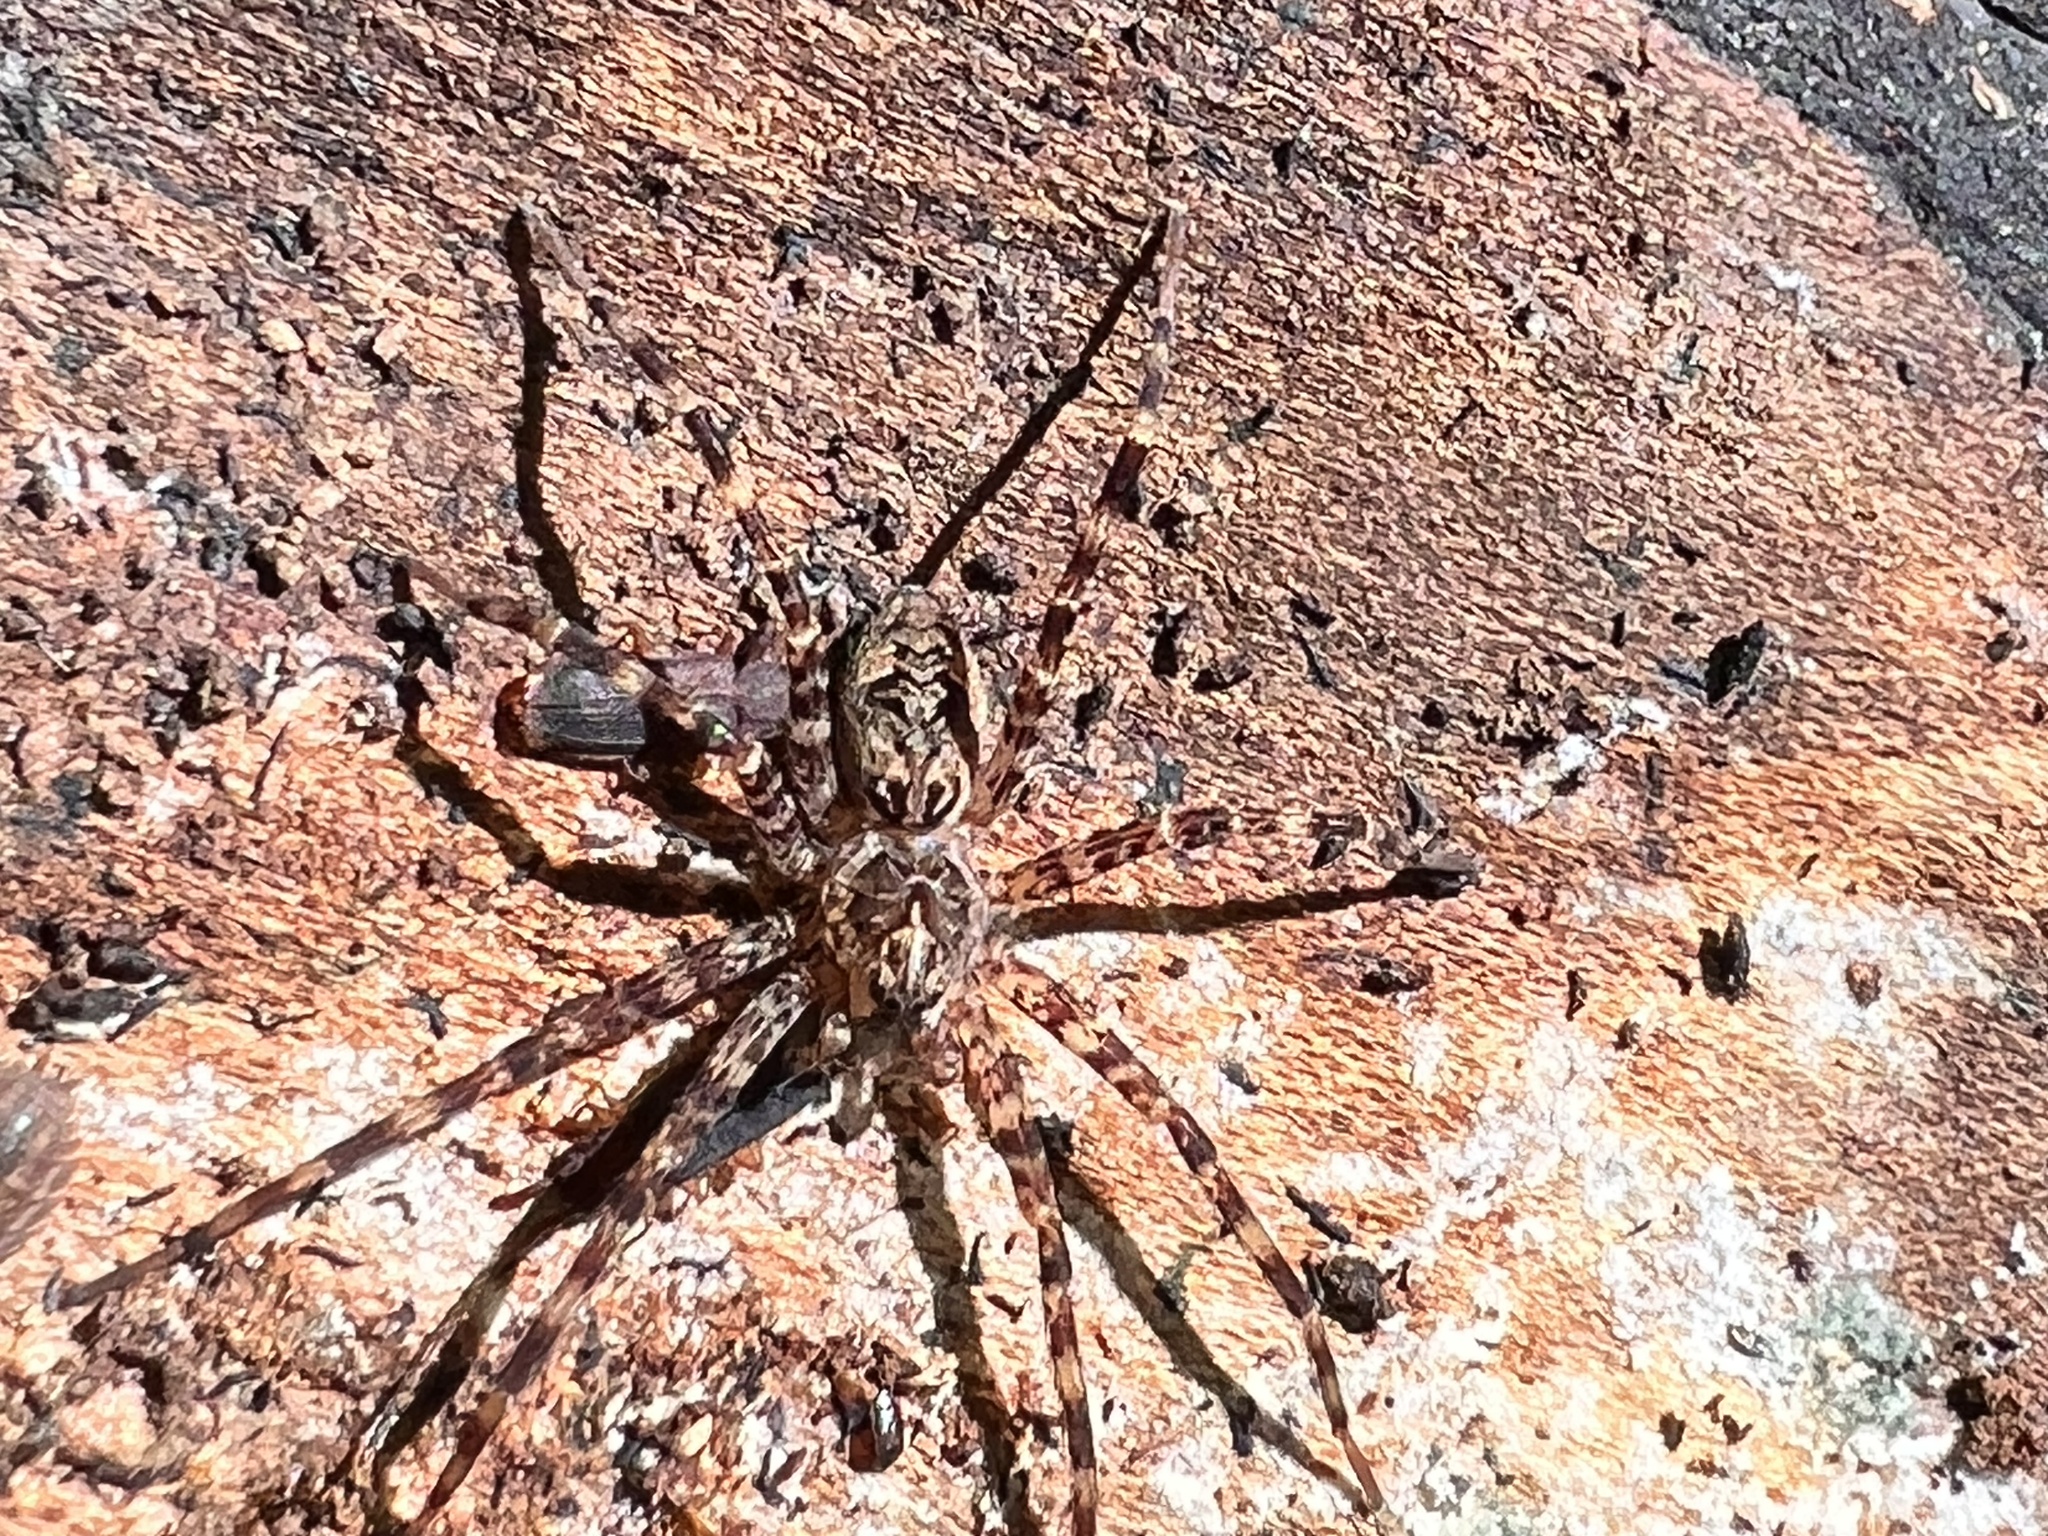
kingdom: Animalia
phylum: Arthropoda
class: Arachnida
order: Araneae
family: Pisauridae
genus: Dolomedes
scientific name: Dolomedes tenebrosus
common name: Dark fishing spider
